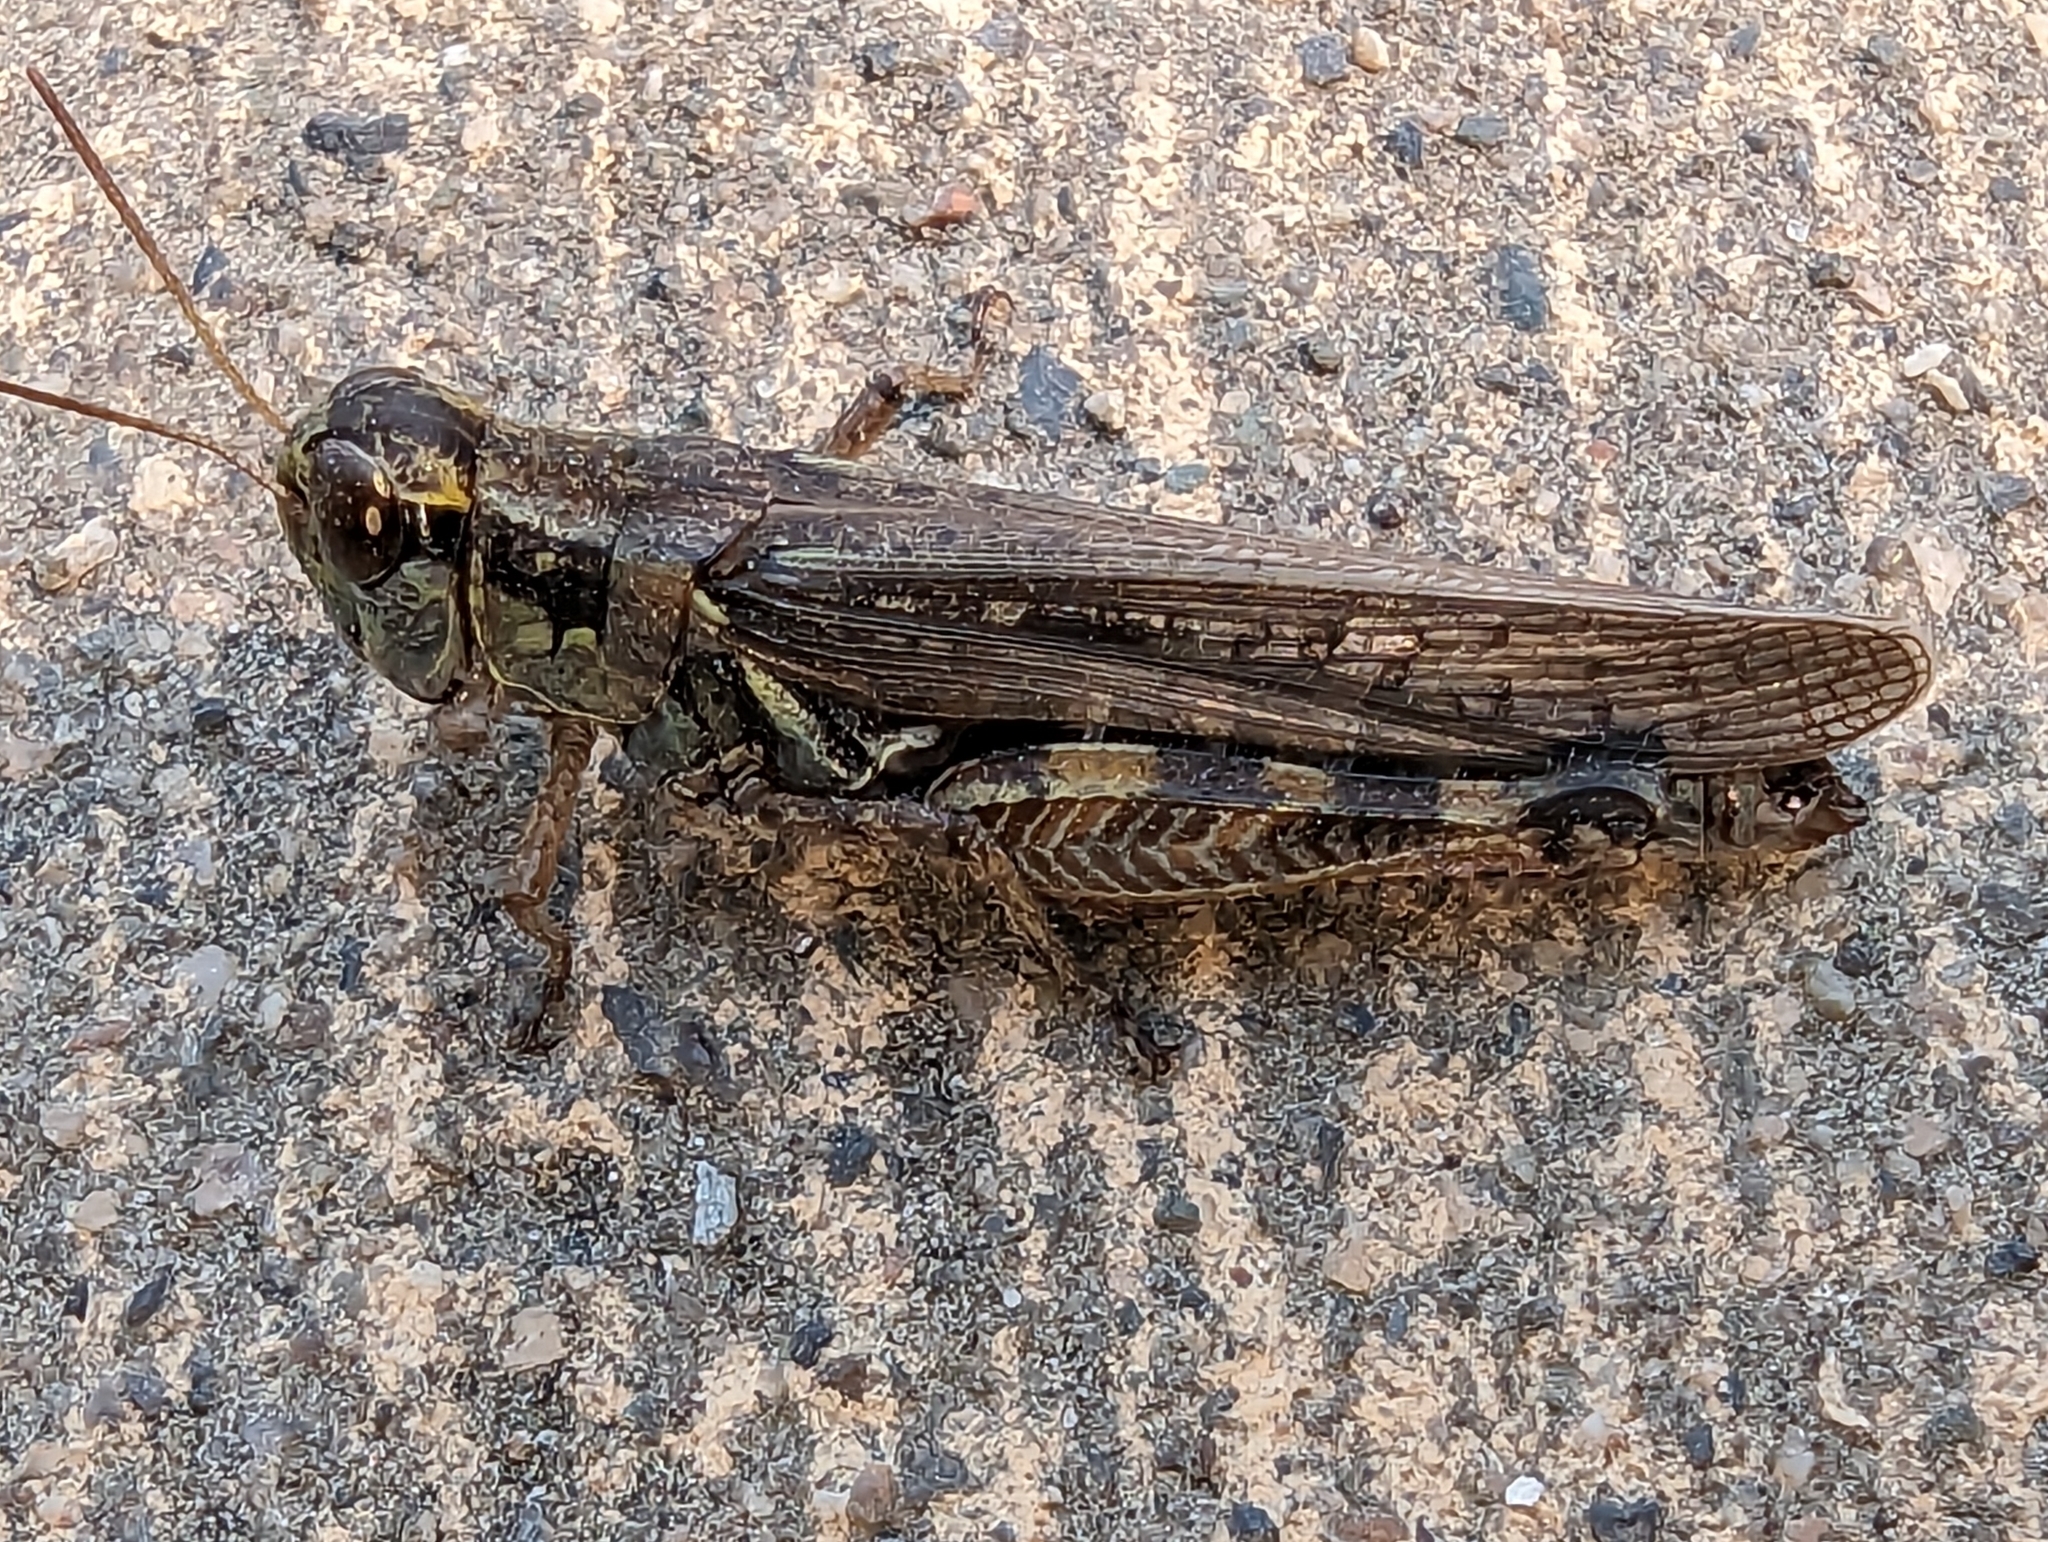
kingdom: Animalia
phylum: Arthropoda
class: Insecta
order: Orthoptera
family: Acrididae
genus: Melanoplus
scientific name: Melanoplus sanguinipes
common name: Migratory grasshopper
